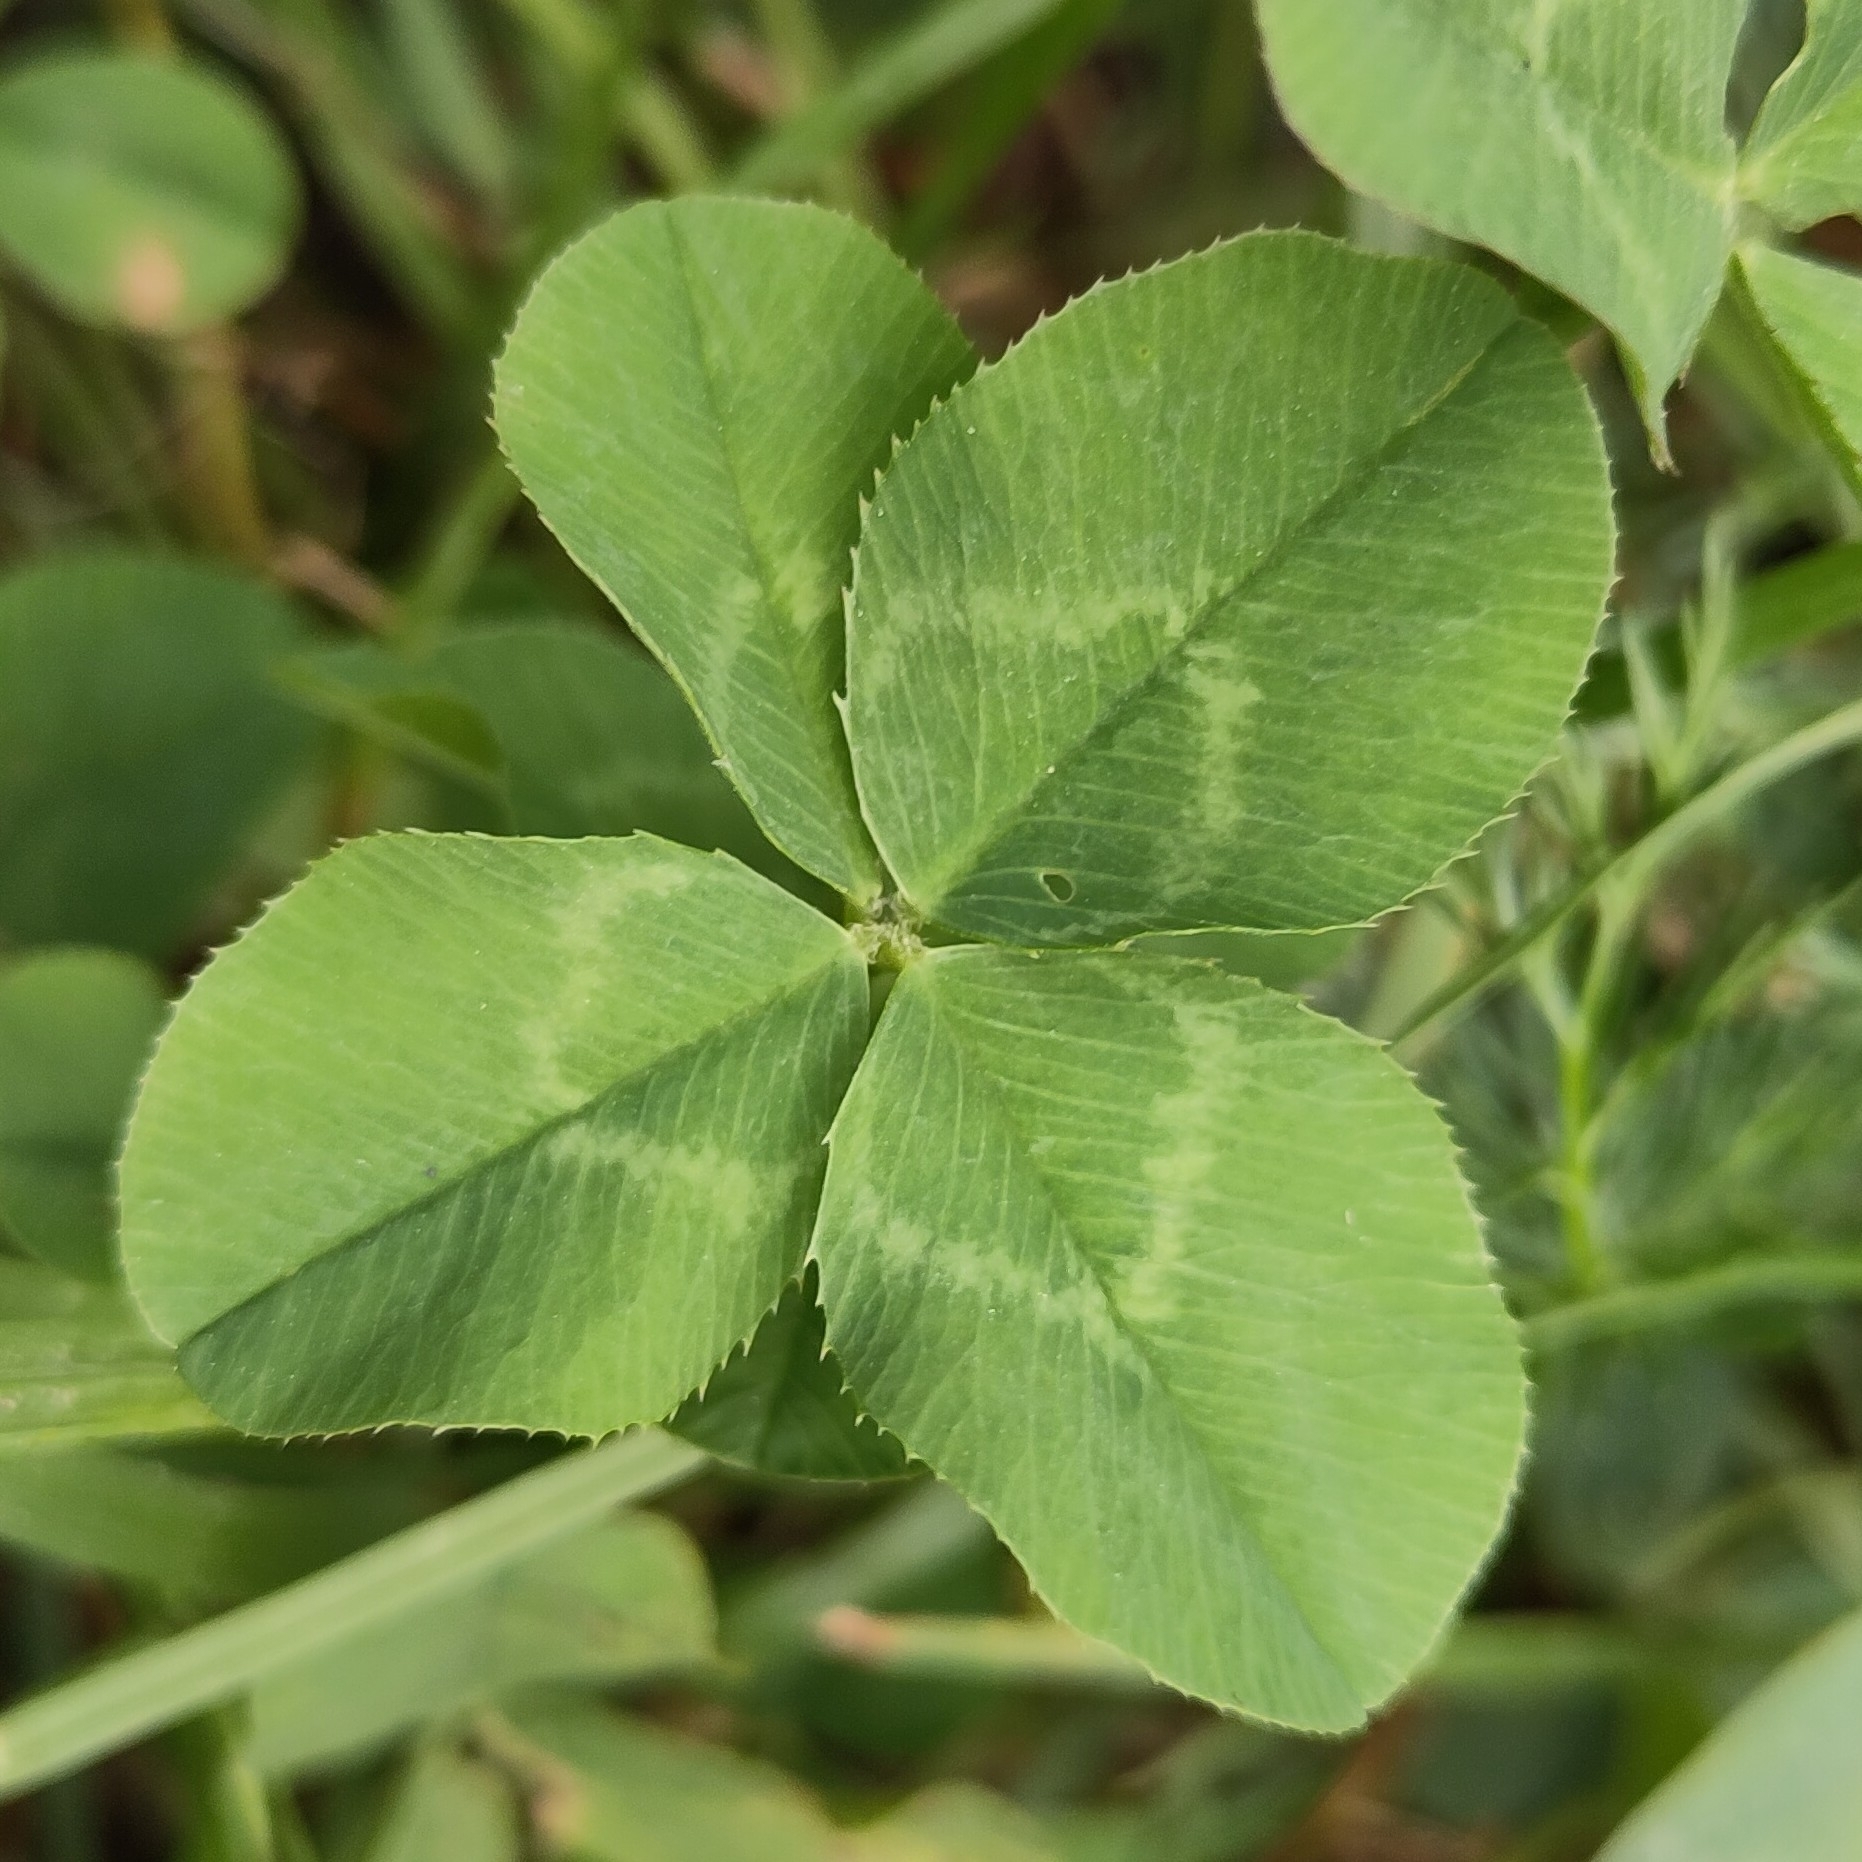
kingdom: Plantae
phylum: Tracheophyta
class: Magnoliopsida
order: Fabales
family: Fabaceae
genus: Trifolium
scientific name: Trifolium repens
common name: White clover
